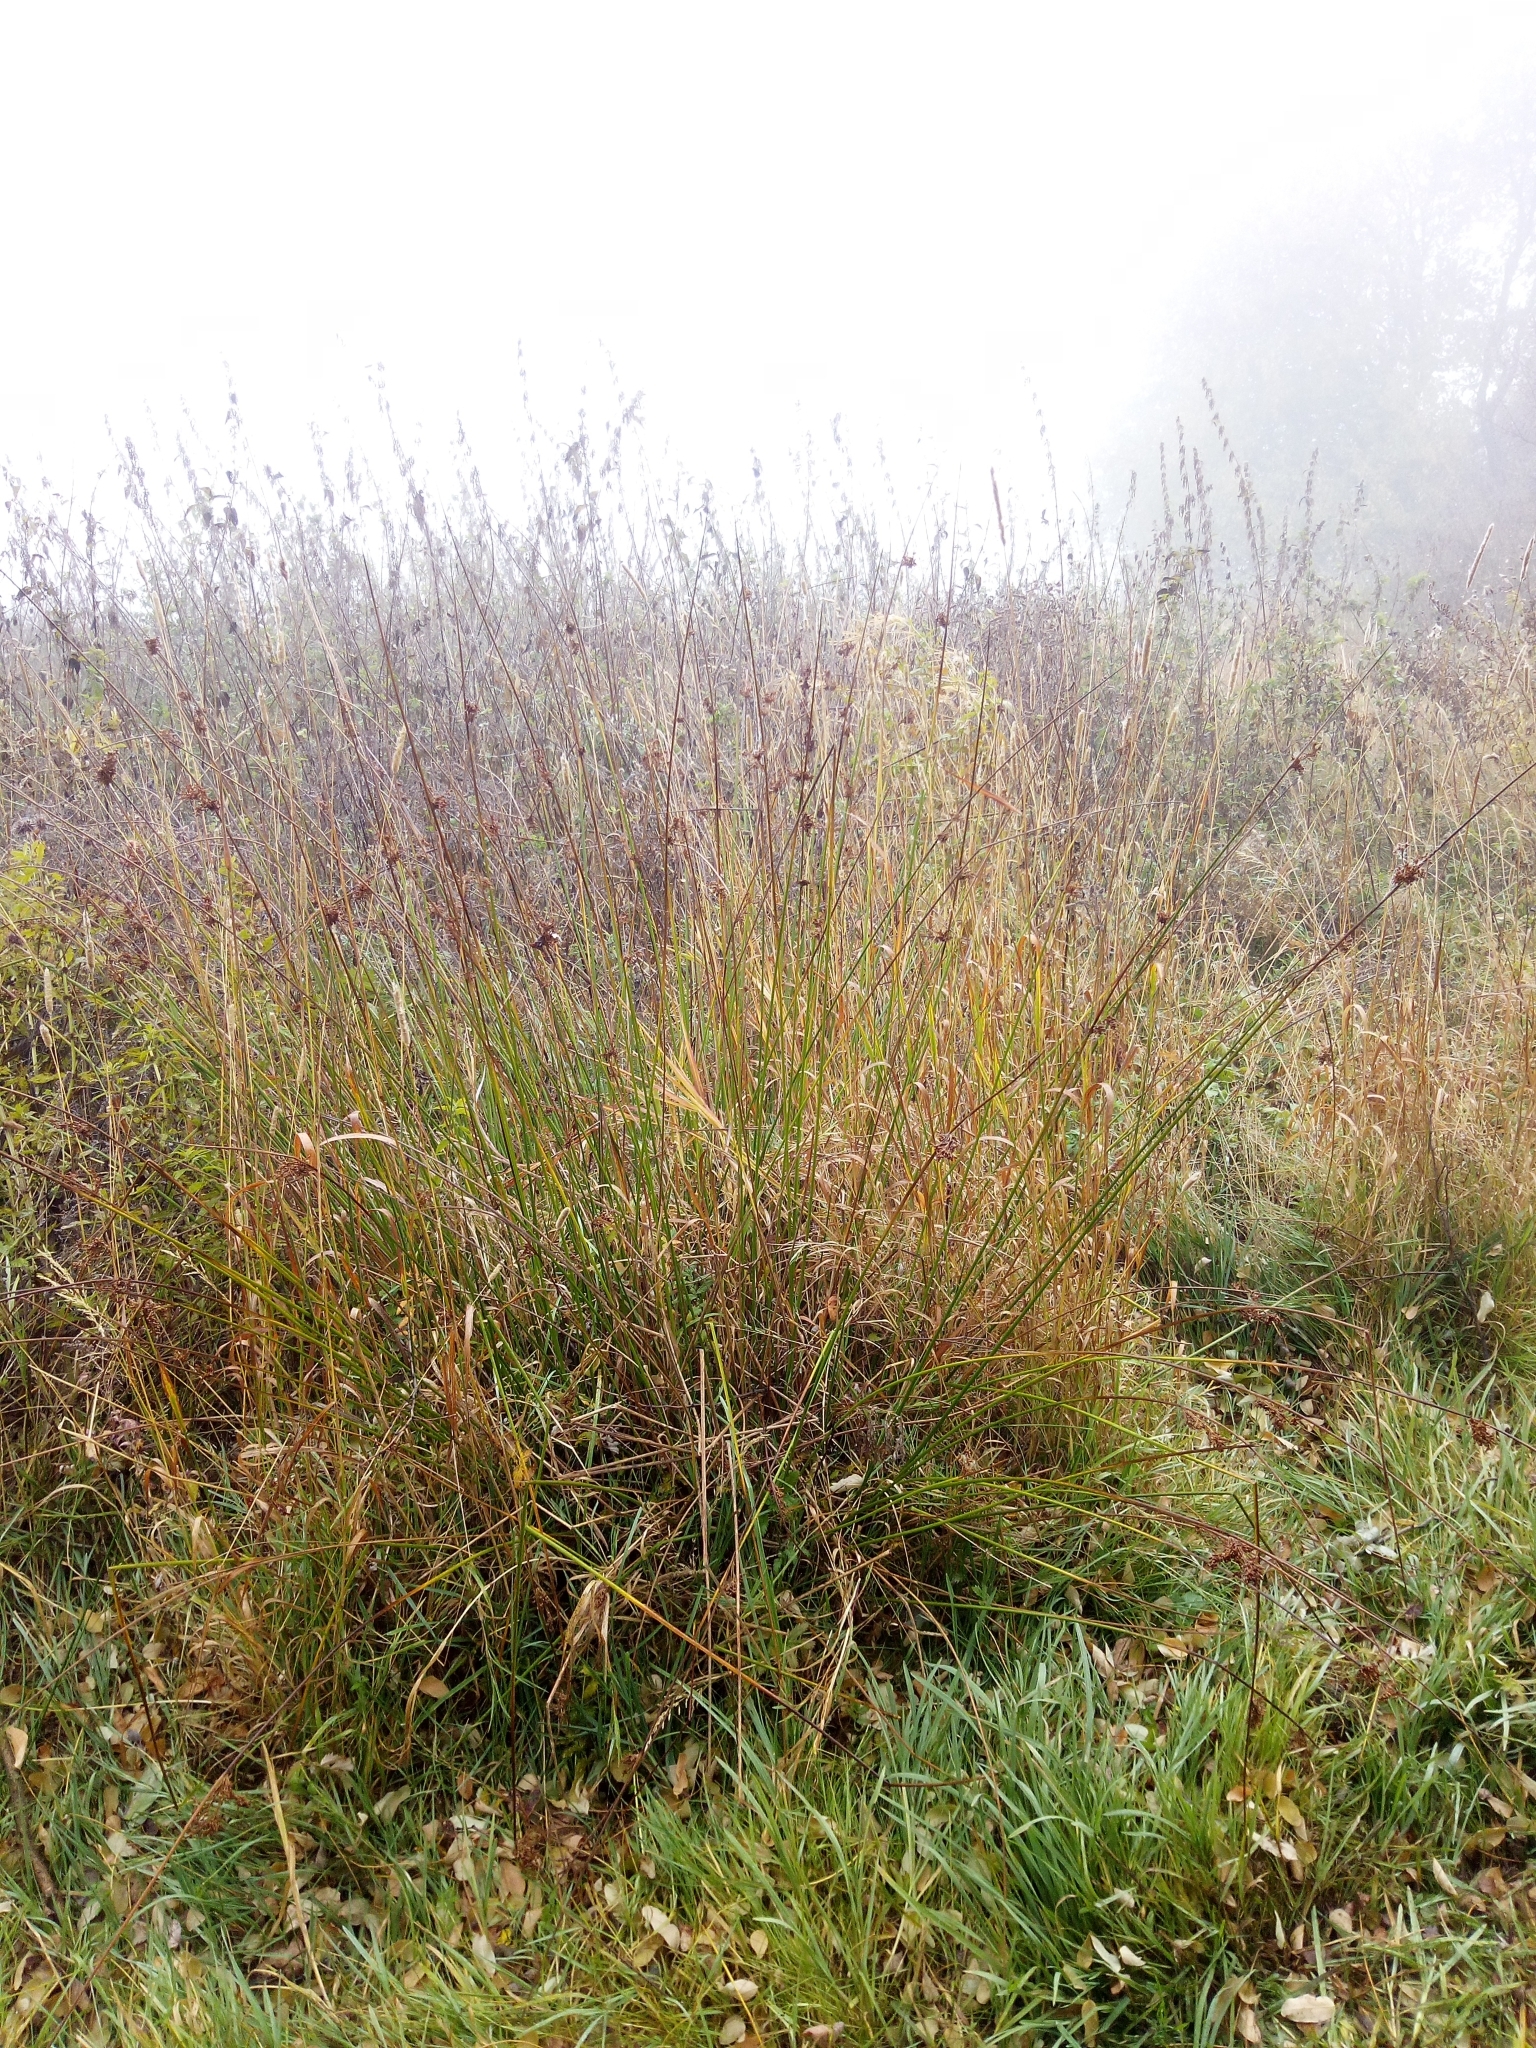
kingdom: Plantae
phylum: Tracheophyta
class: Liliopsida
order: Poales
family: Juncaceae
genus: Juncus
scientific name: Juncus effusus
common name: Soft rush
